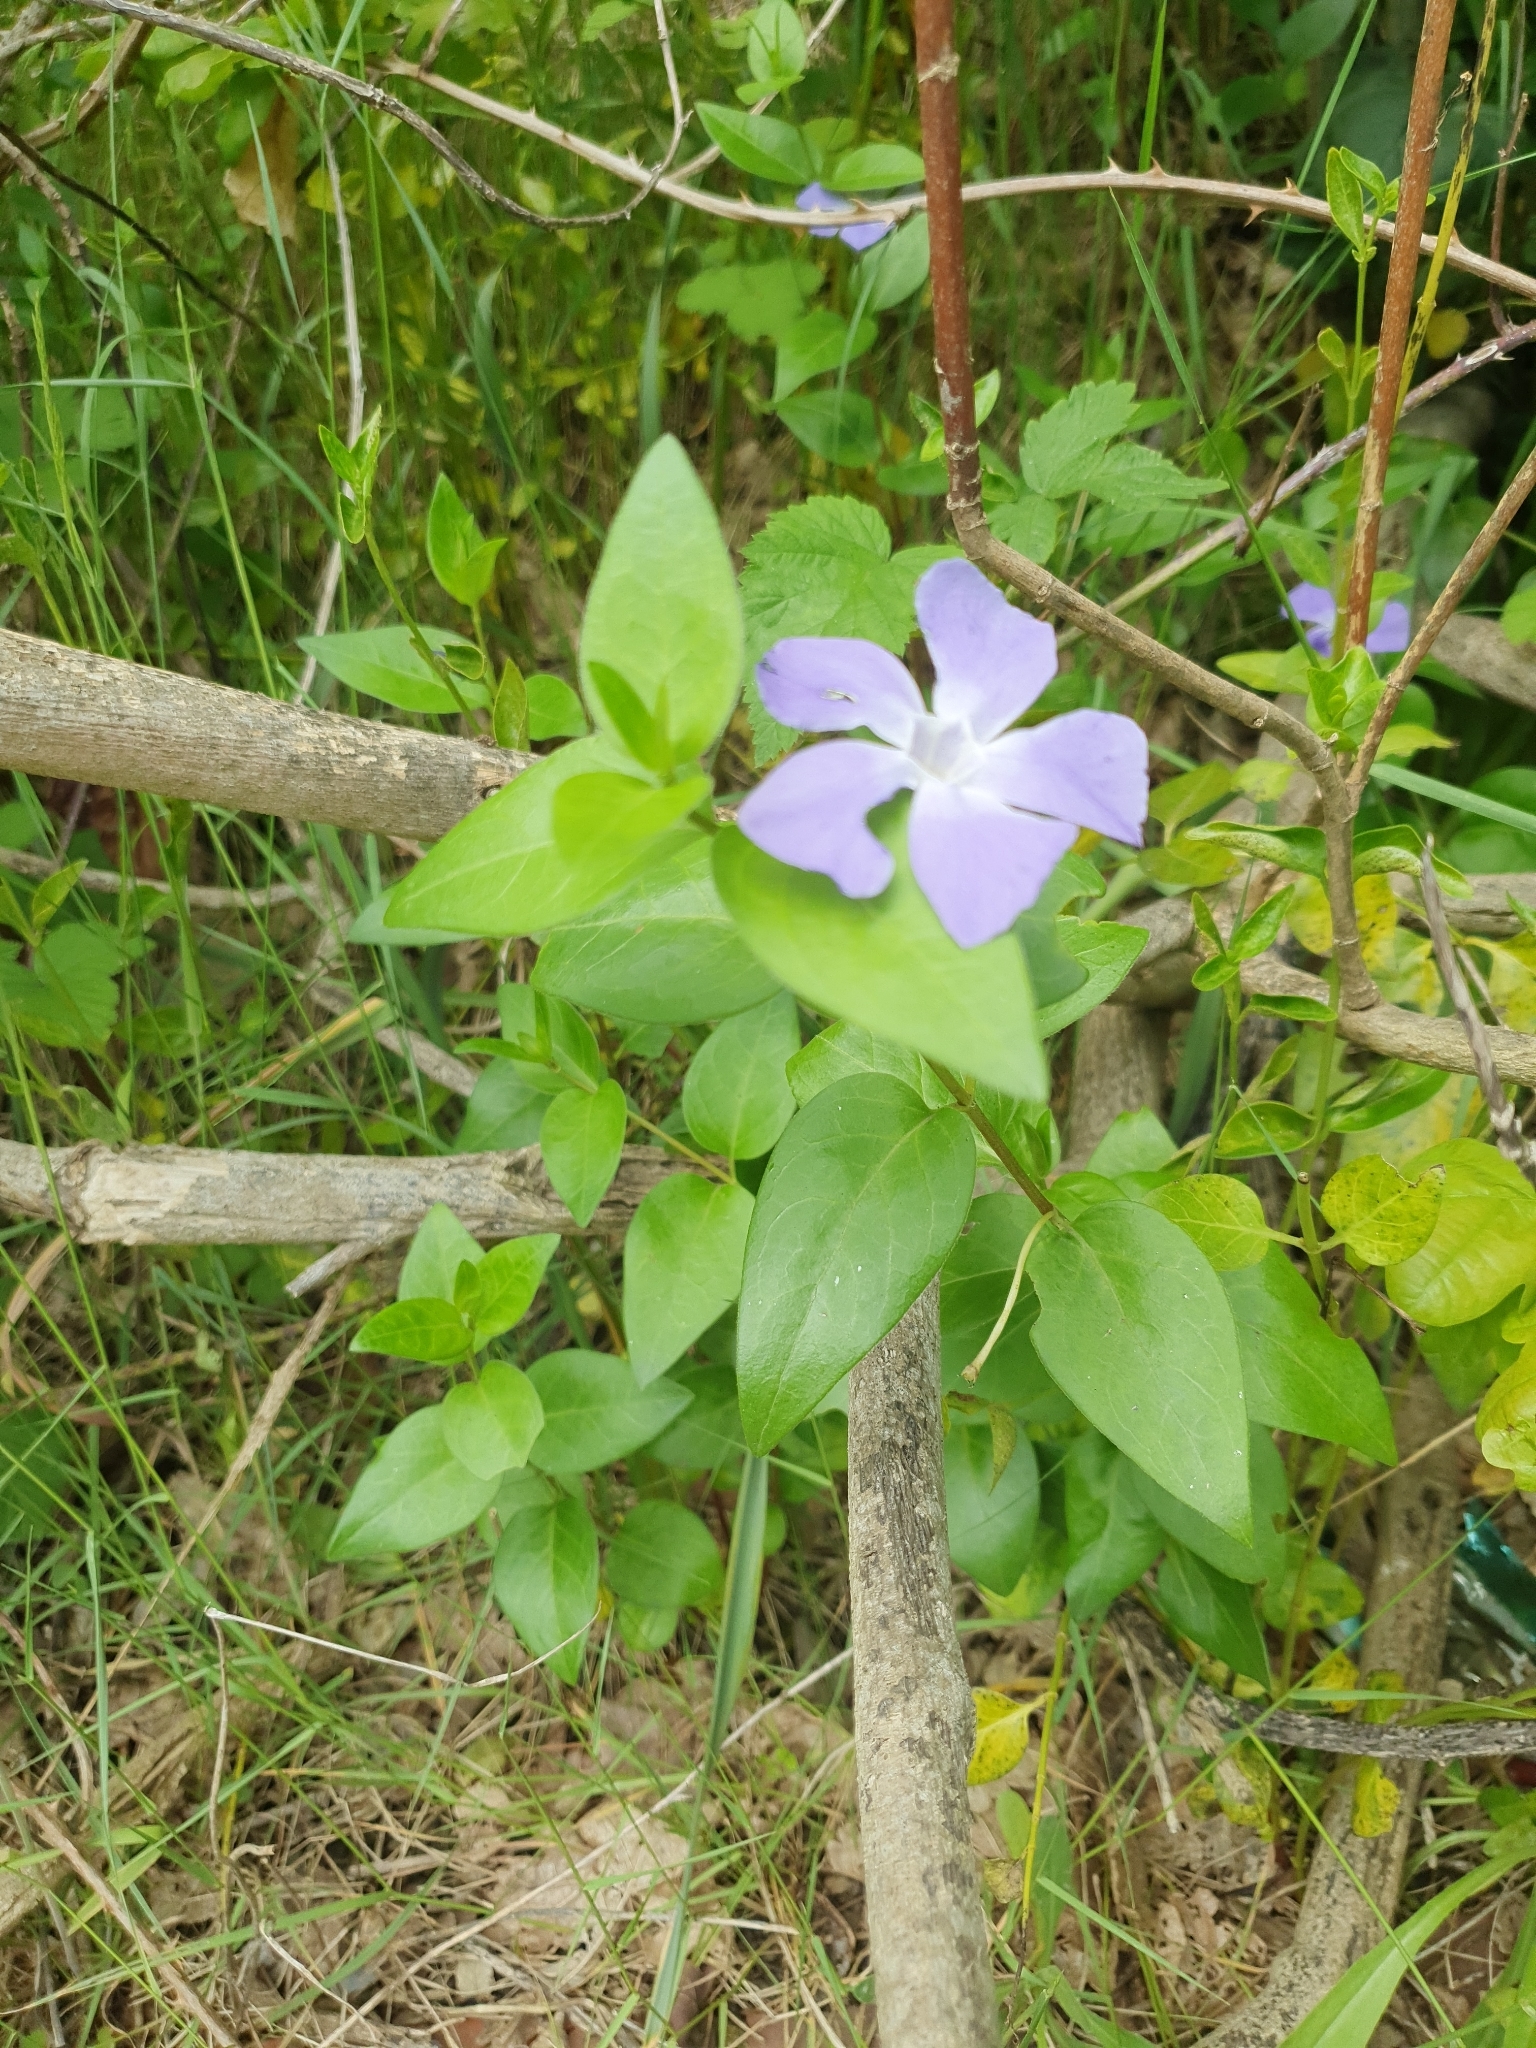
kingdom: Plantae
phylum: Tracheophyta
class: Magnoliopsida
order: Gentianales
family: Apocynaceae
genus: Vinca
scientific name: Vinca major
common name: Greater periwinkle
